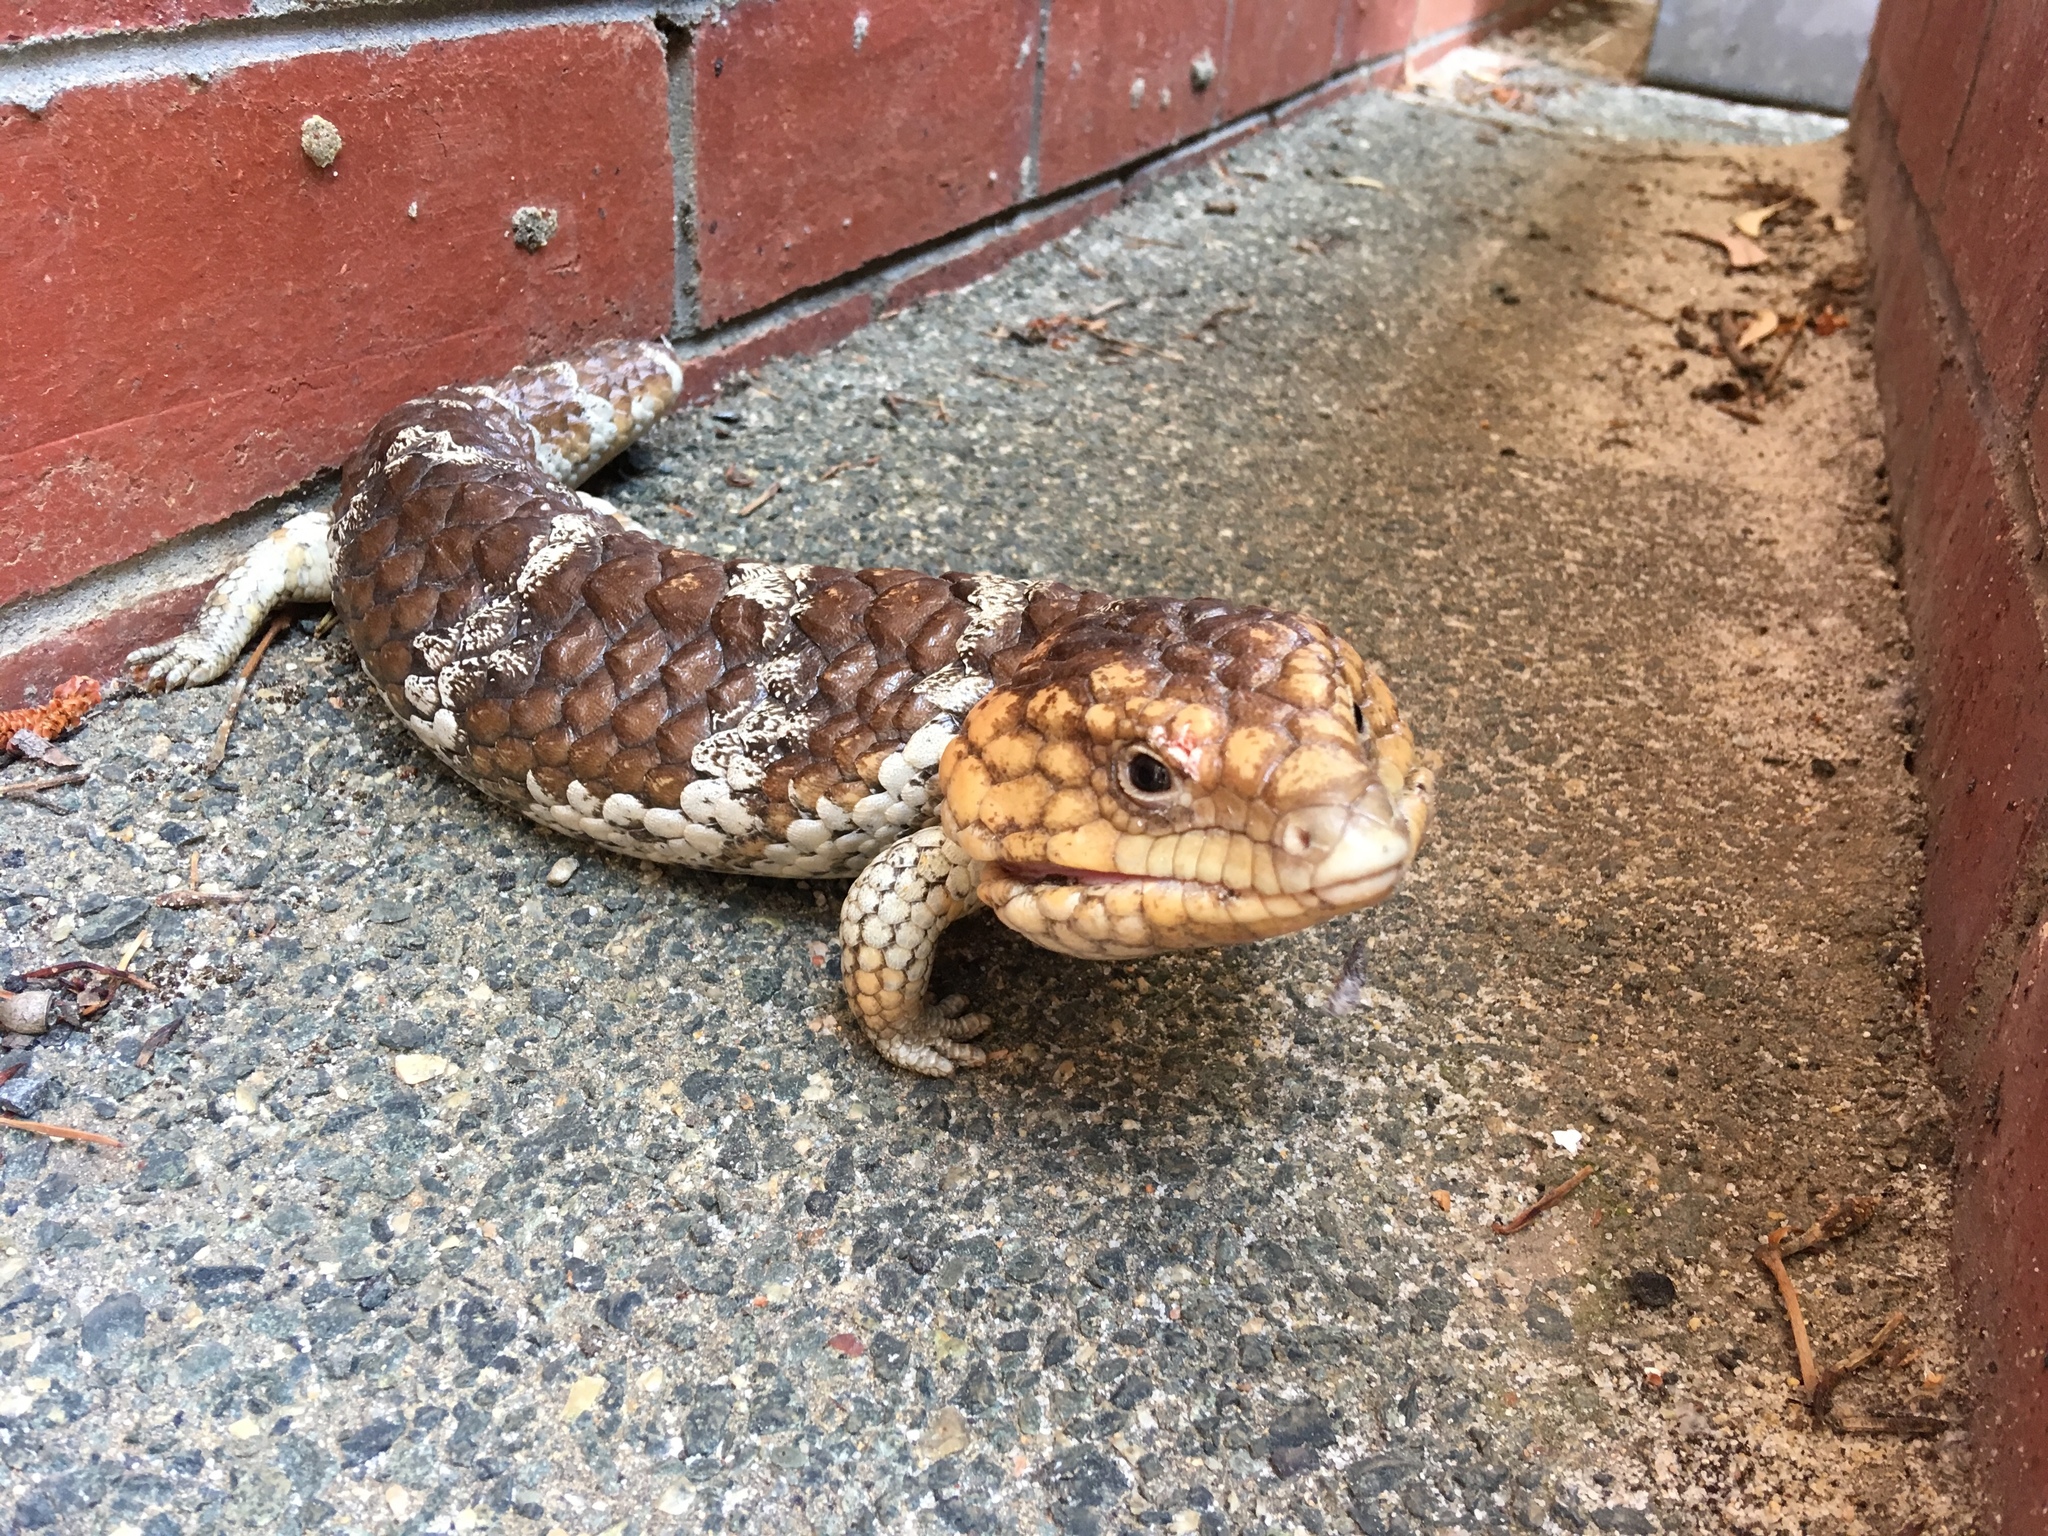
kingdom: Animalia
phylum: Chordata
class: Squamata
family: Scincidae
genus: Tiliqua
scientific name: Tiliqua rugosa
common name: Pinecone lizard
